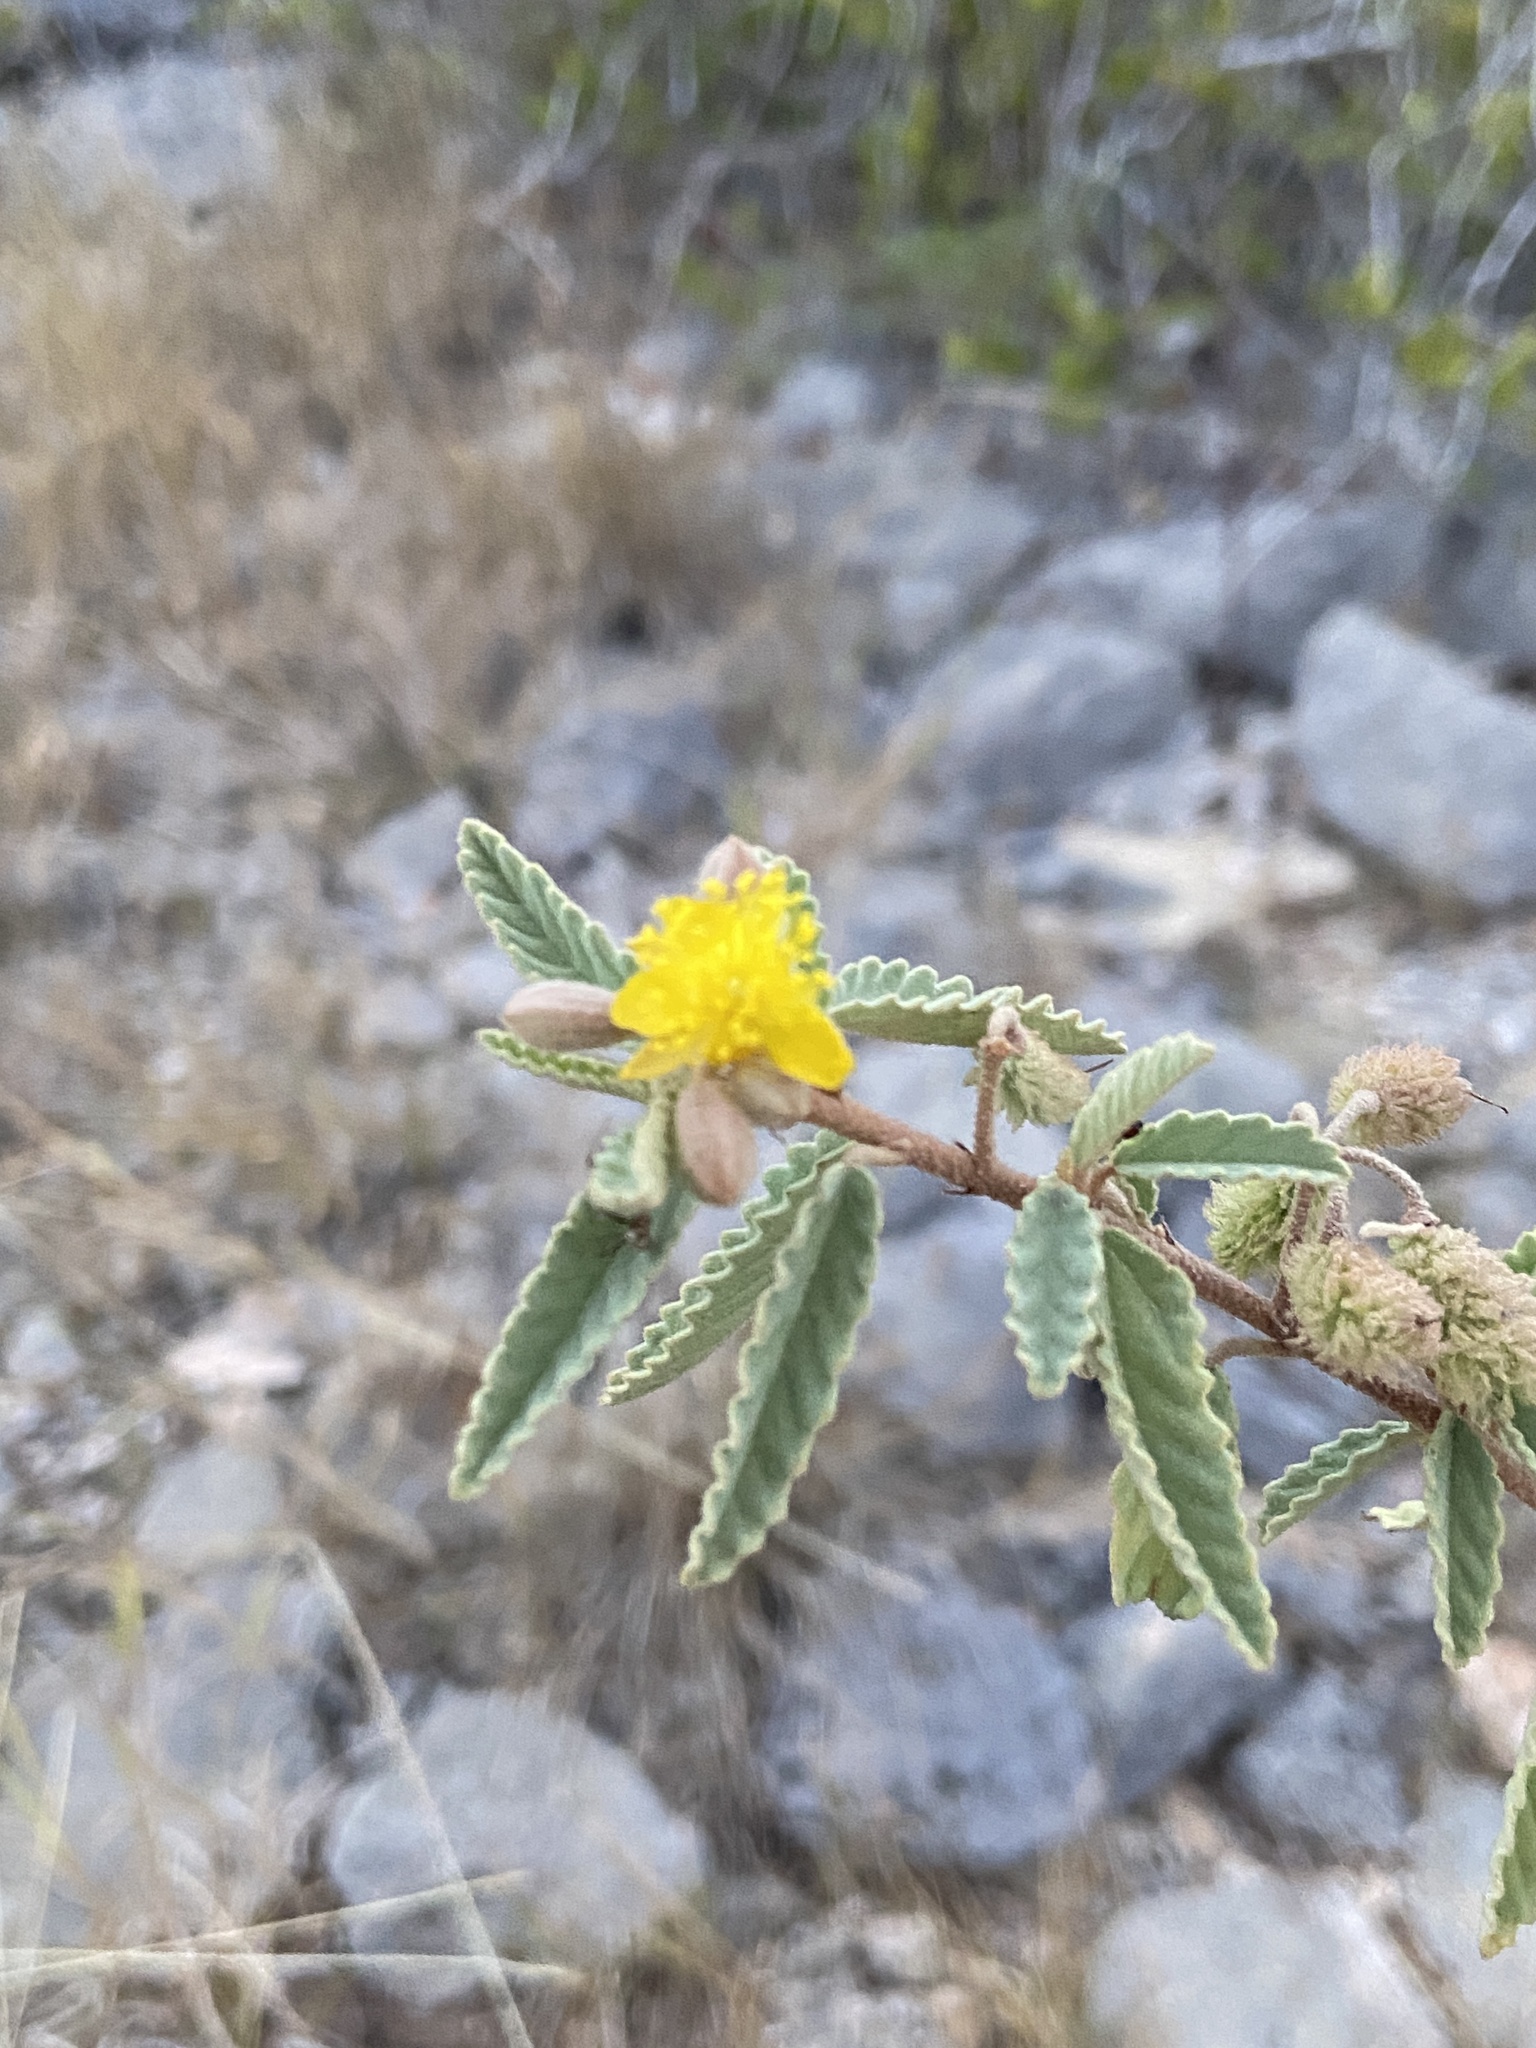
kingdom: Plantae
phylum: Tracheophyta
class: Magnoliopsida
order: Malvales
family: Malvaceae
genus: Corchorus
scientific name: Corchorus hirsutus
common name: Jackswitch
